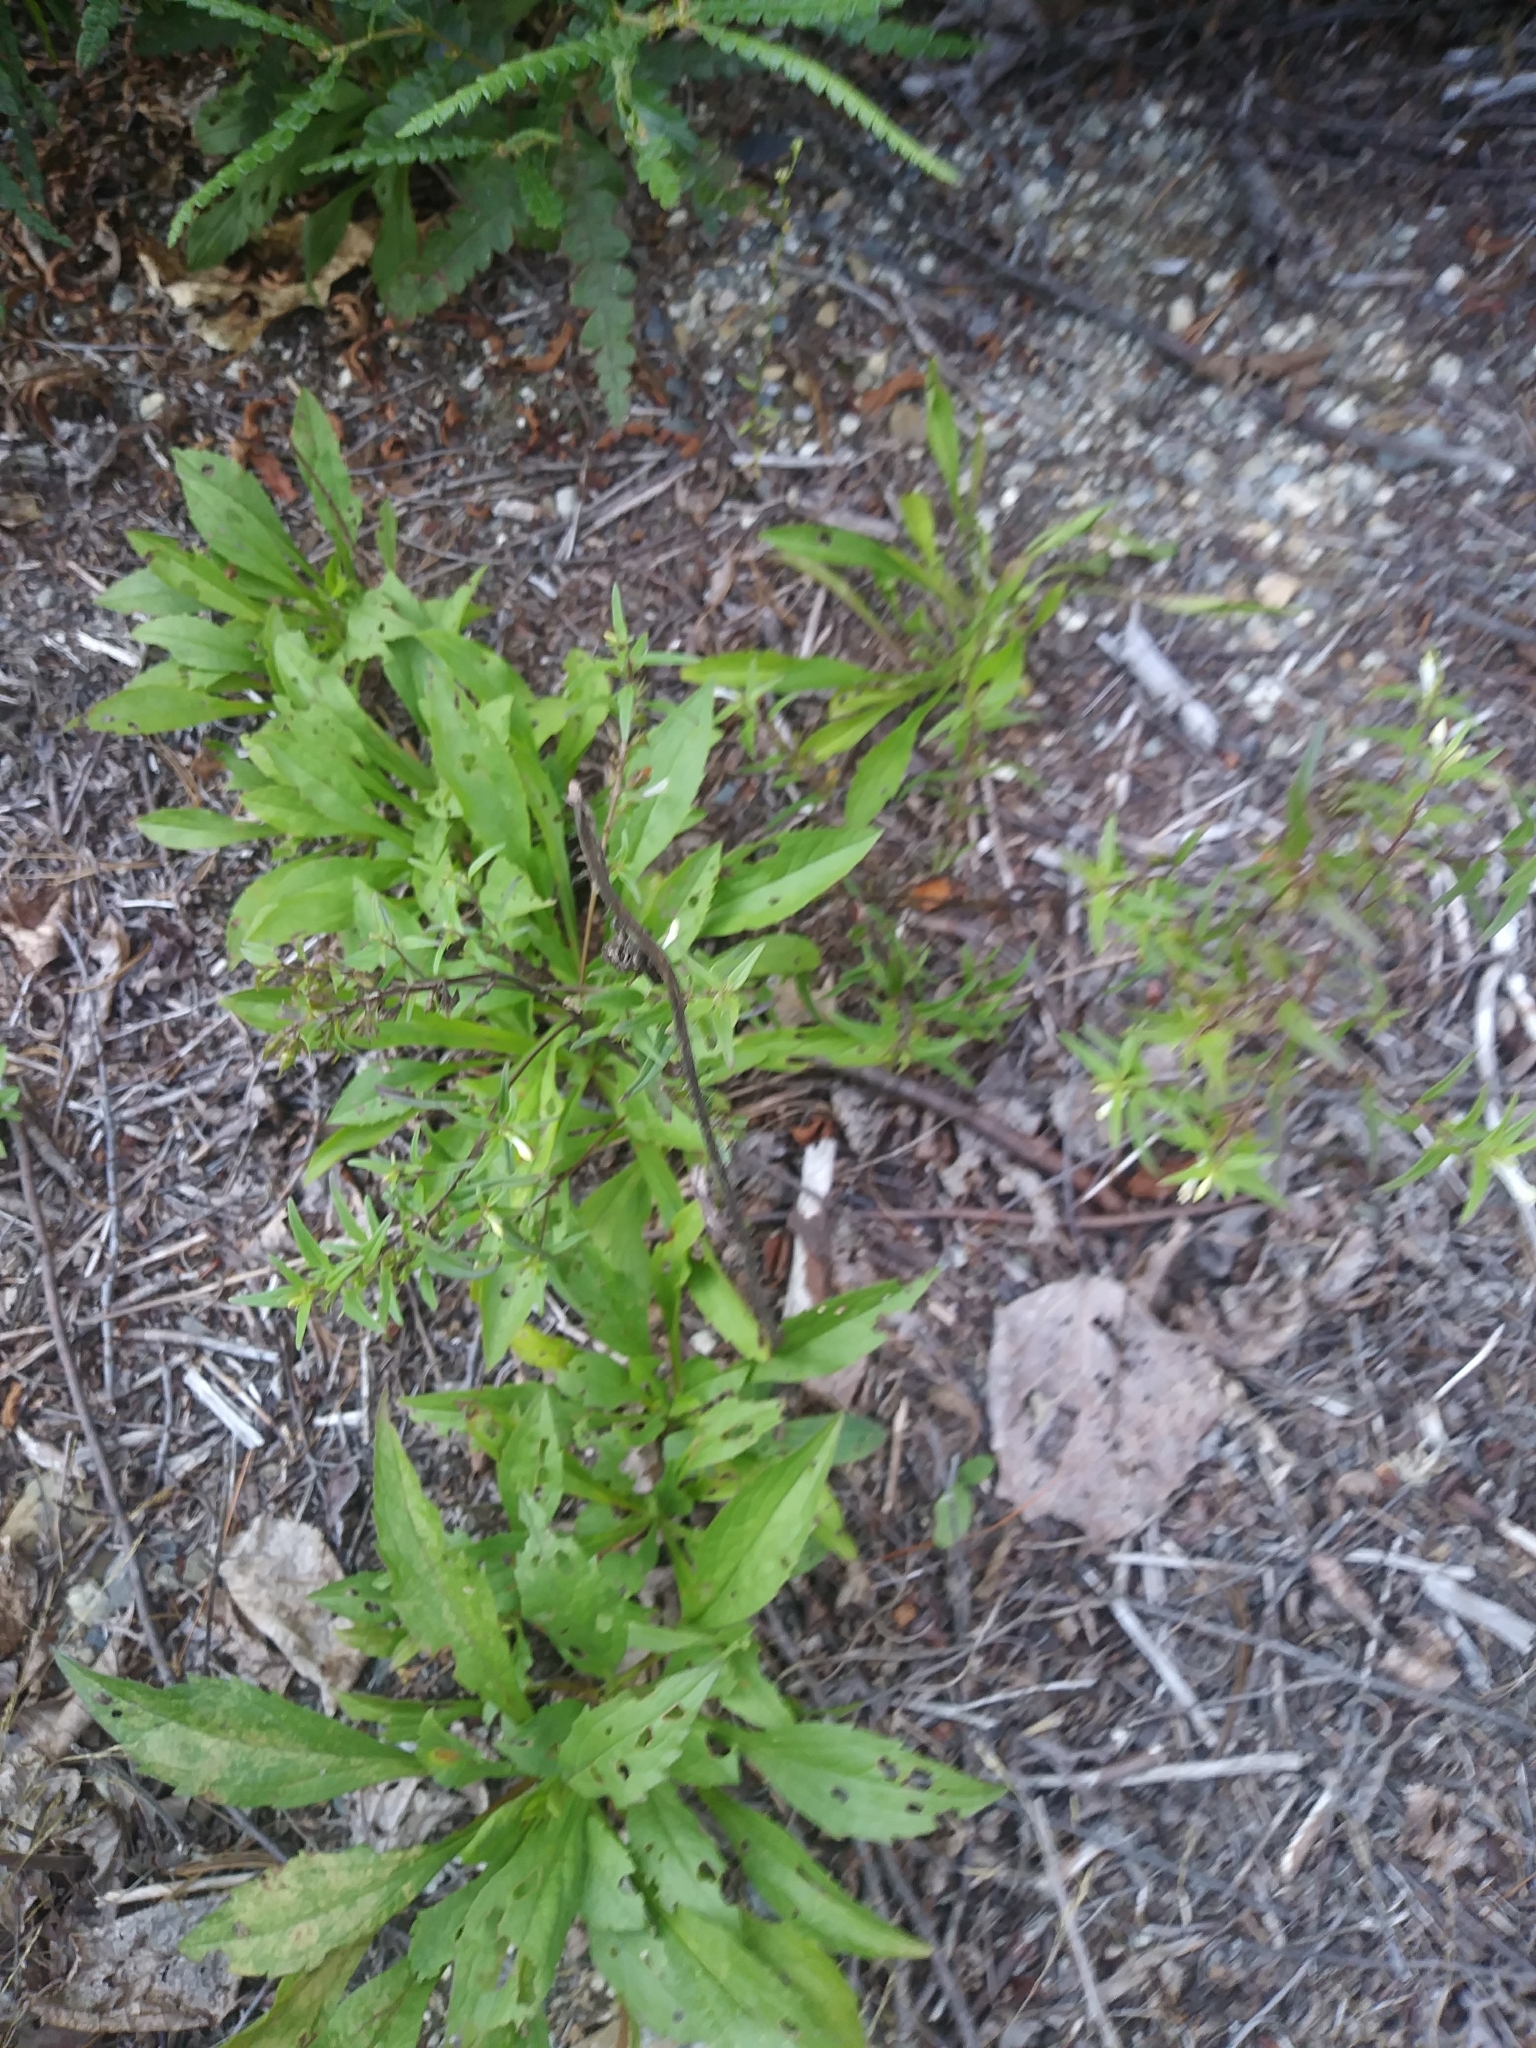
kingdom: Plantae
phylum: Tracheophyta
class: Magnoliopsida
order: Lamiales
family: Orobanchaceae
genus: Melampyrum
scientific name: Melampyrum lineare
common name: American cow-wheat
